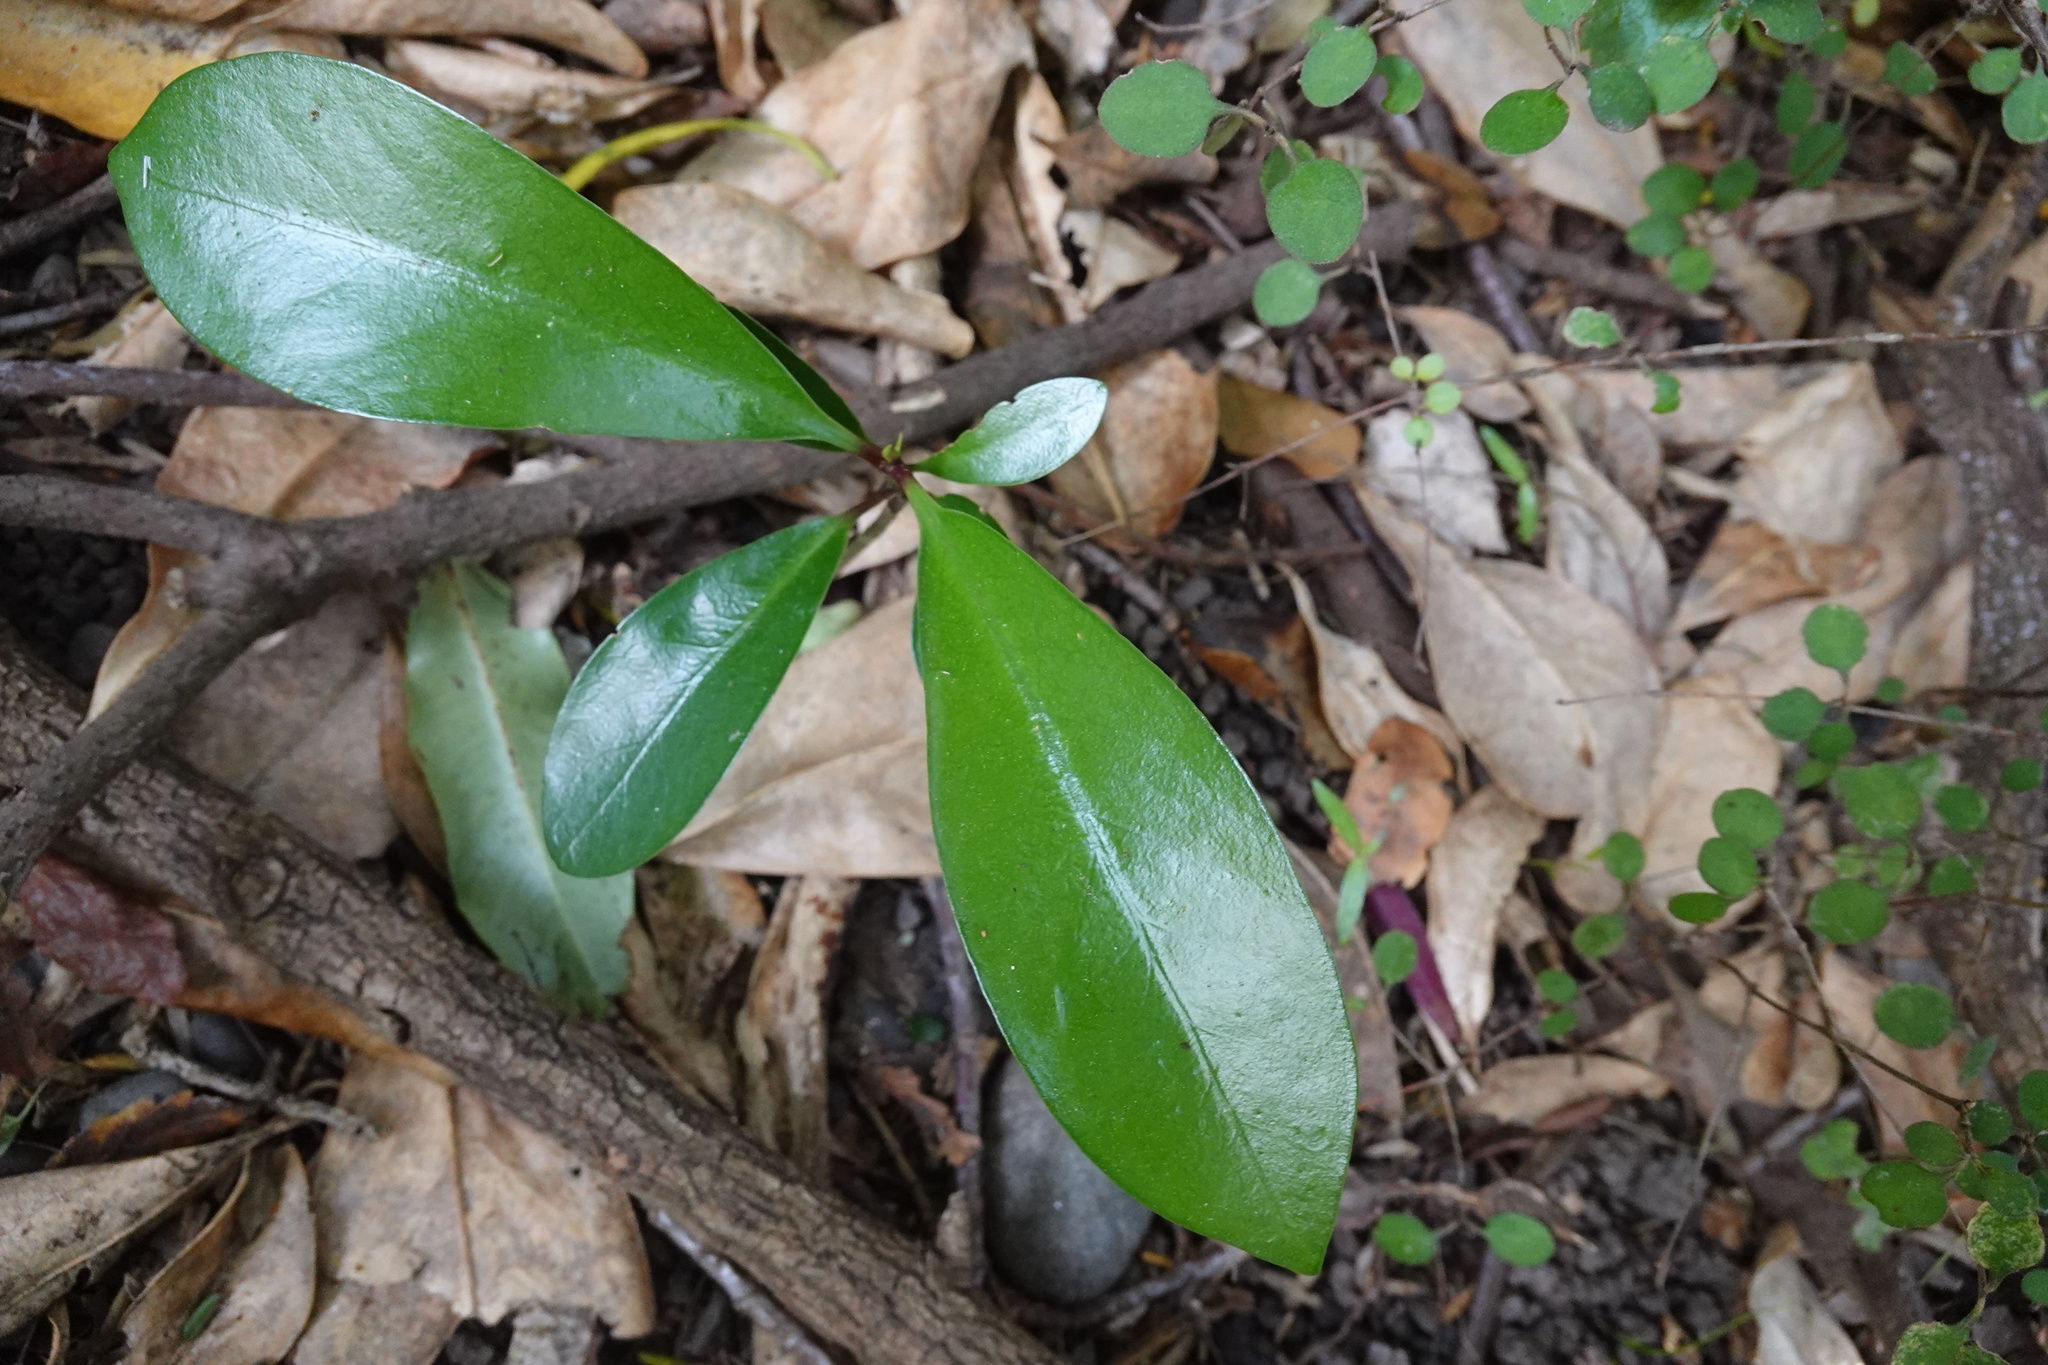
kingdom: Plantae
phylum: Tracheophyta
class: Magnoliopsida
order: Cucurbitales
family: Corynocarpaceae
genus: Corynocarpus
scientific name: Corynocarpus laevigatus
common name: New zealand laurel
